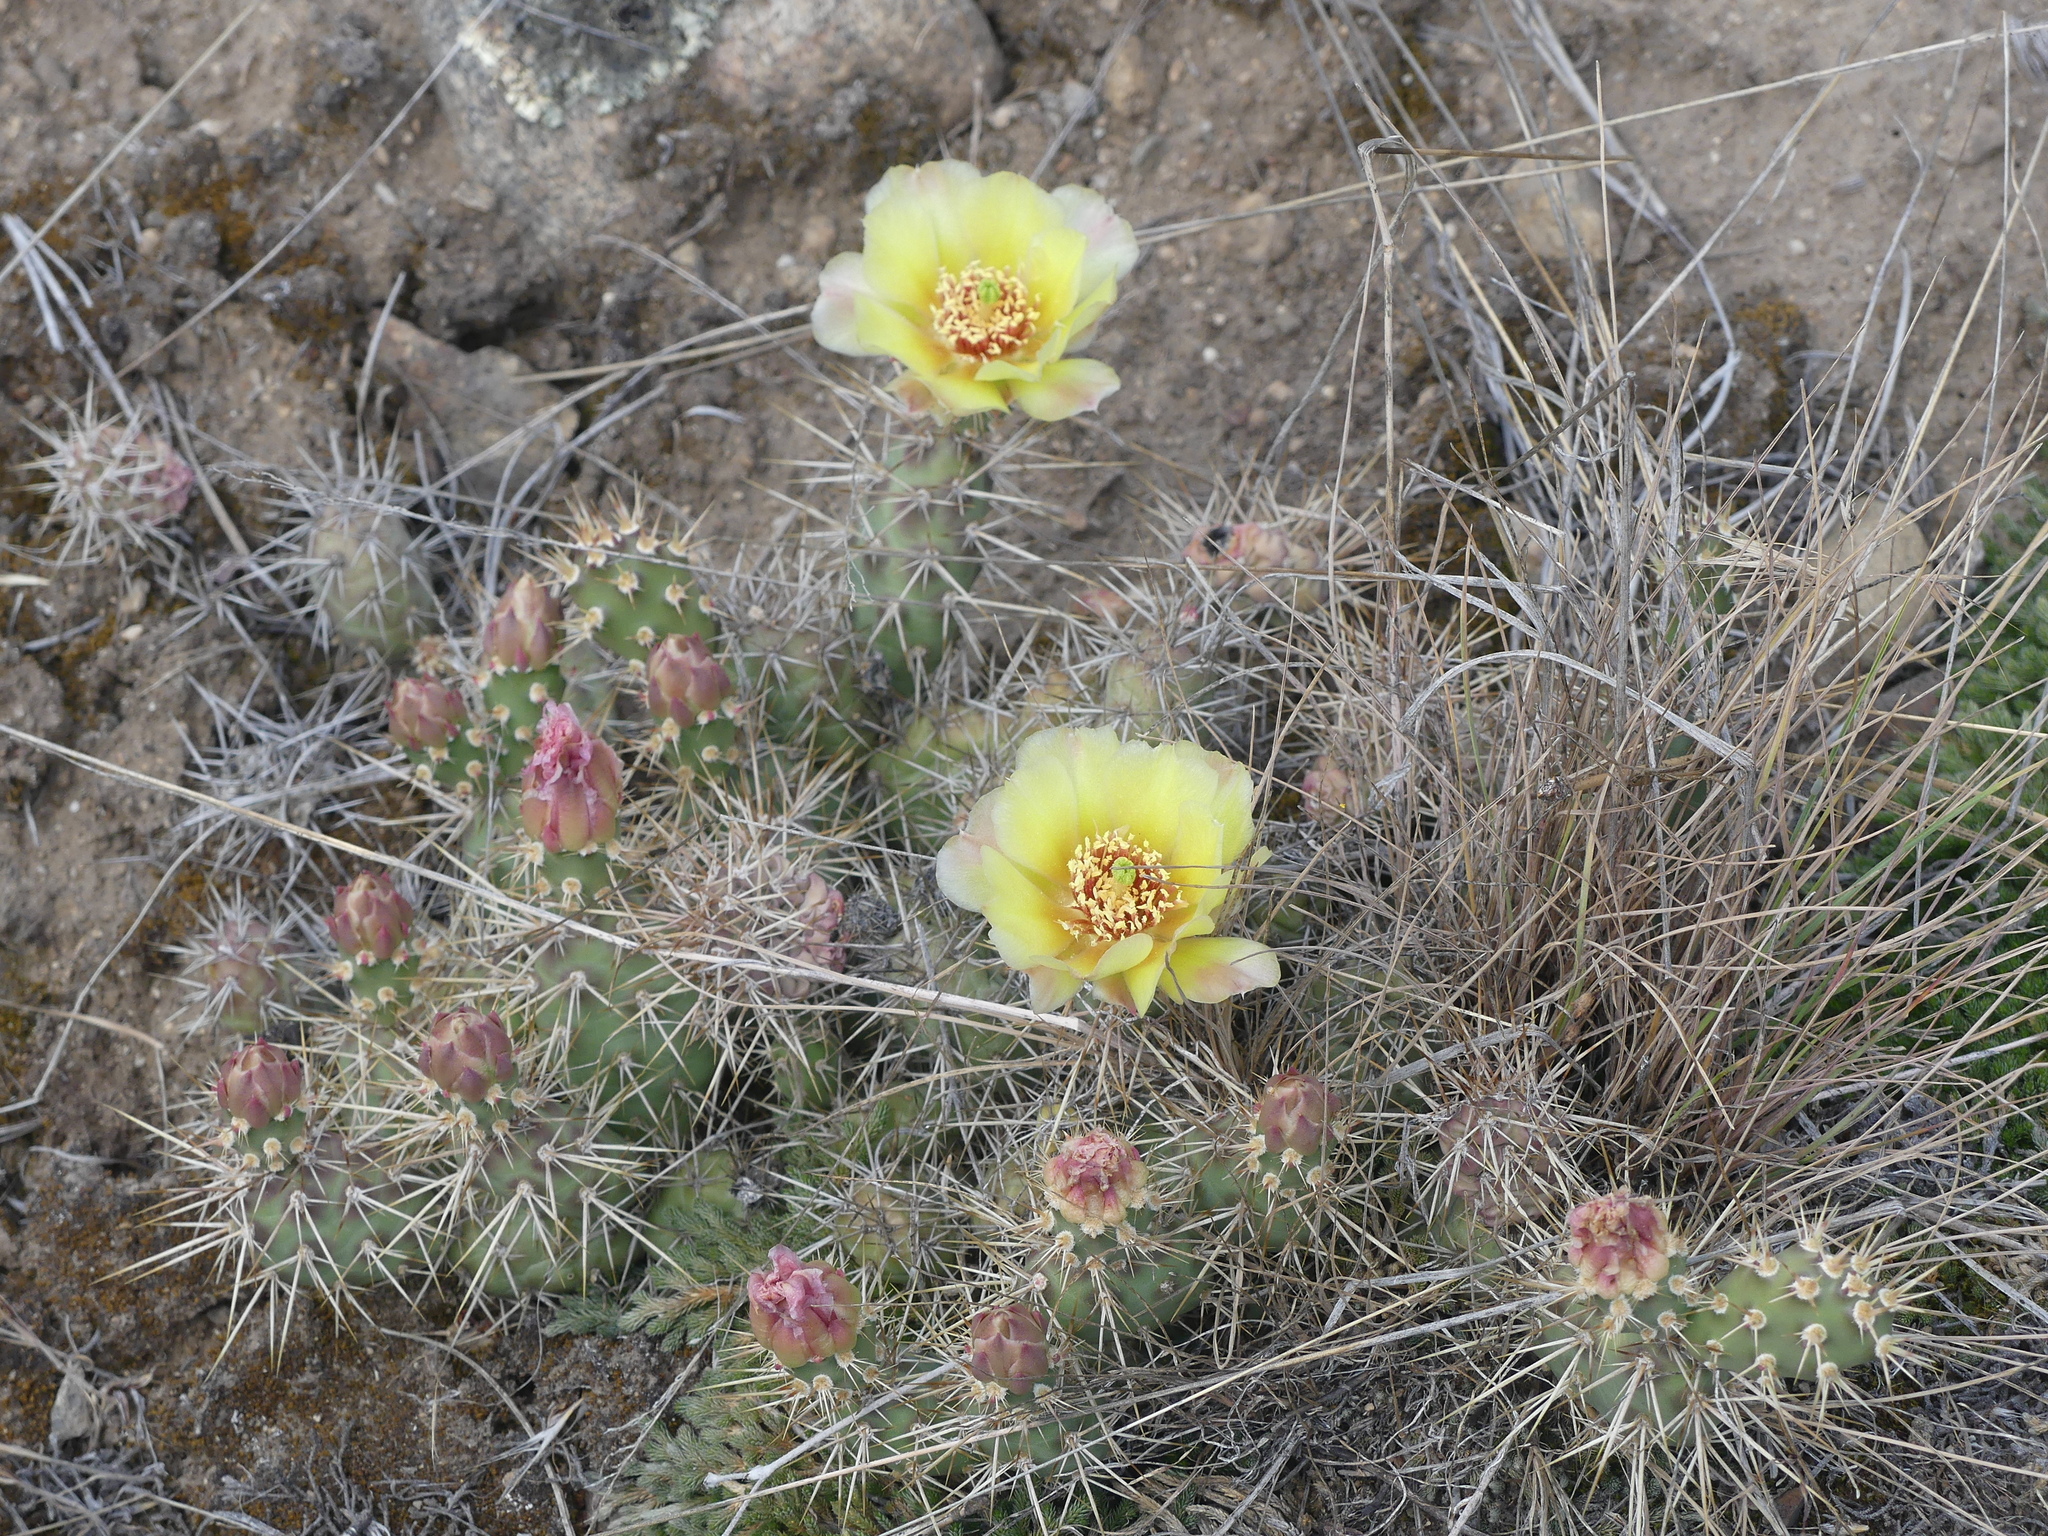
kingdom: Plantae
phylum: Tracheophyta
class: Magnoliopsida
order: Caryophyllales
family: Cactaceae
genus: Opuntia
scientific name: Opuntia fragilis
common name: Brittle cactus
